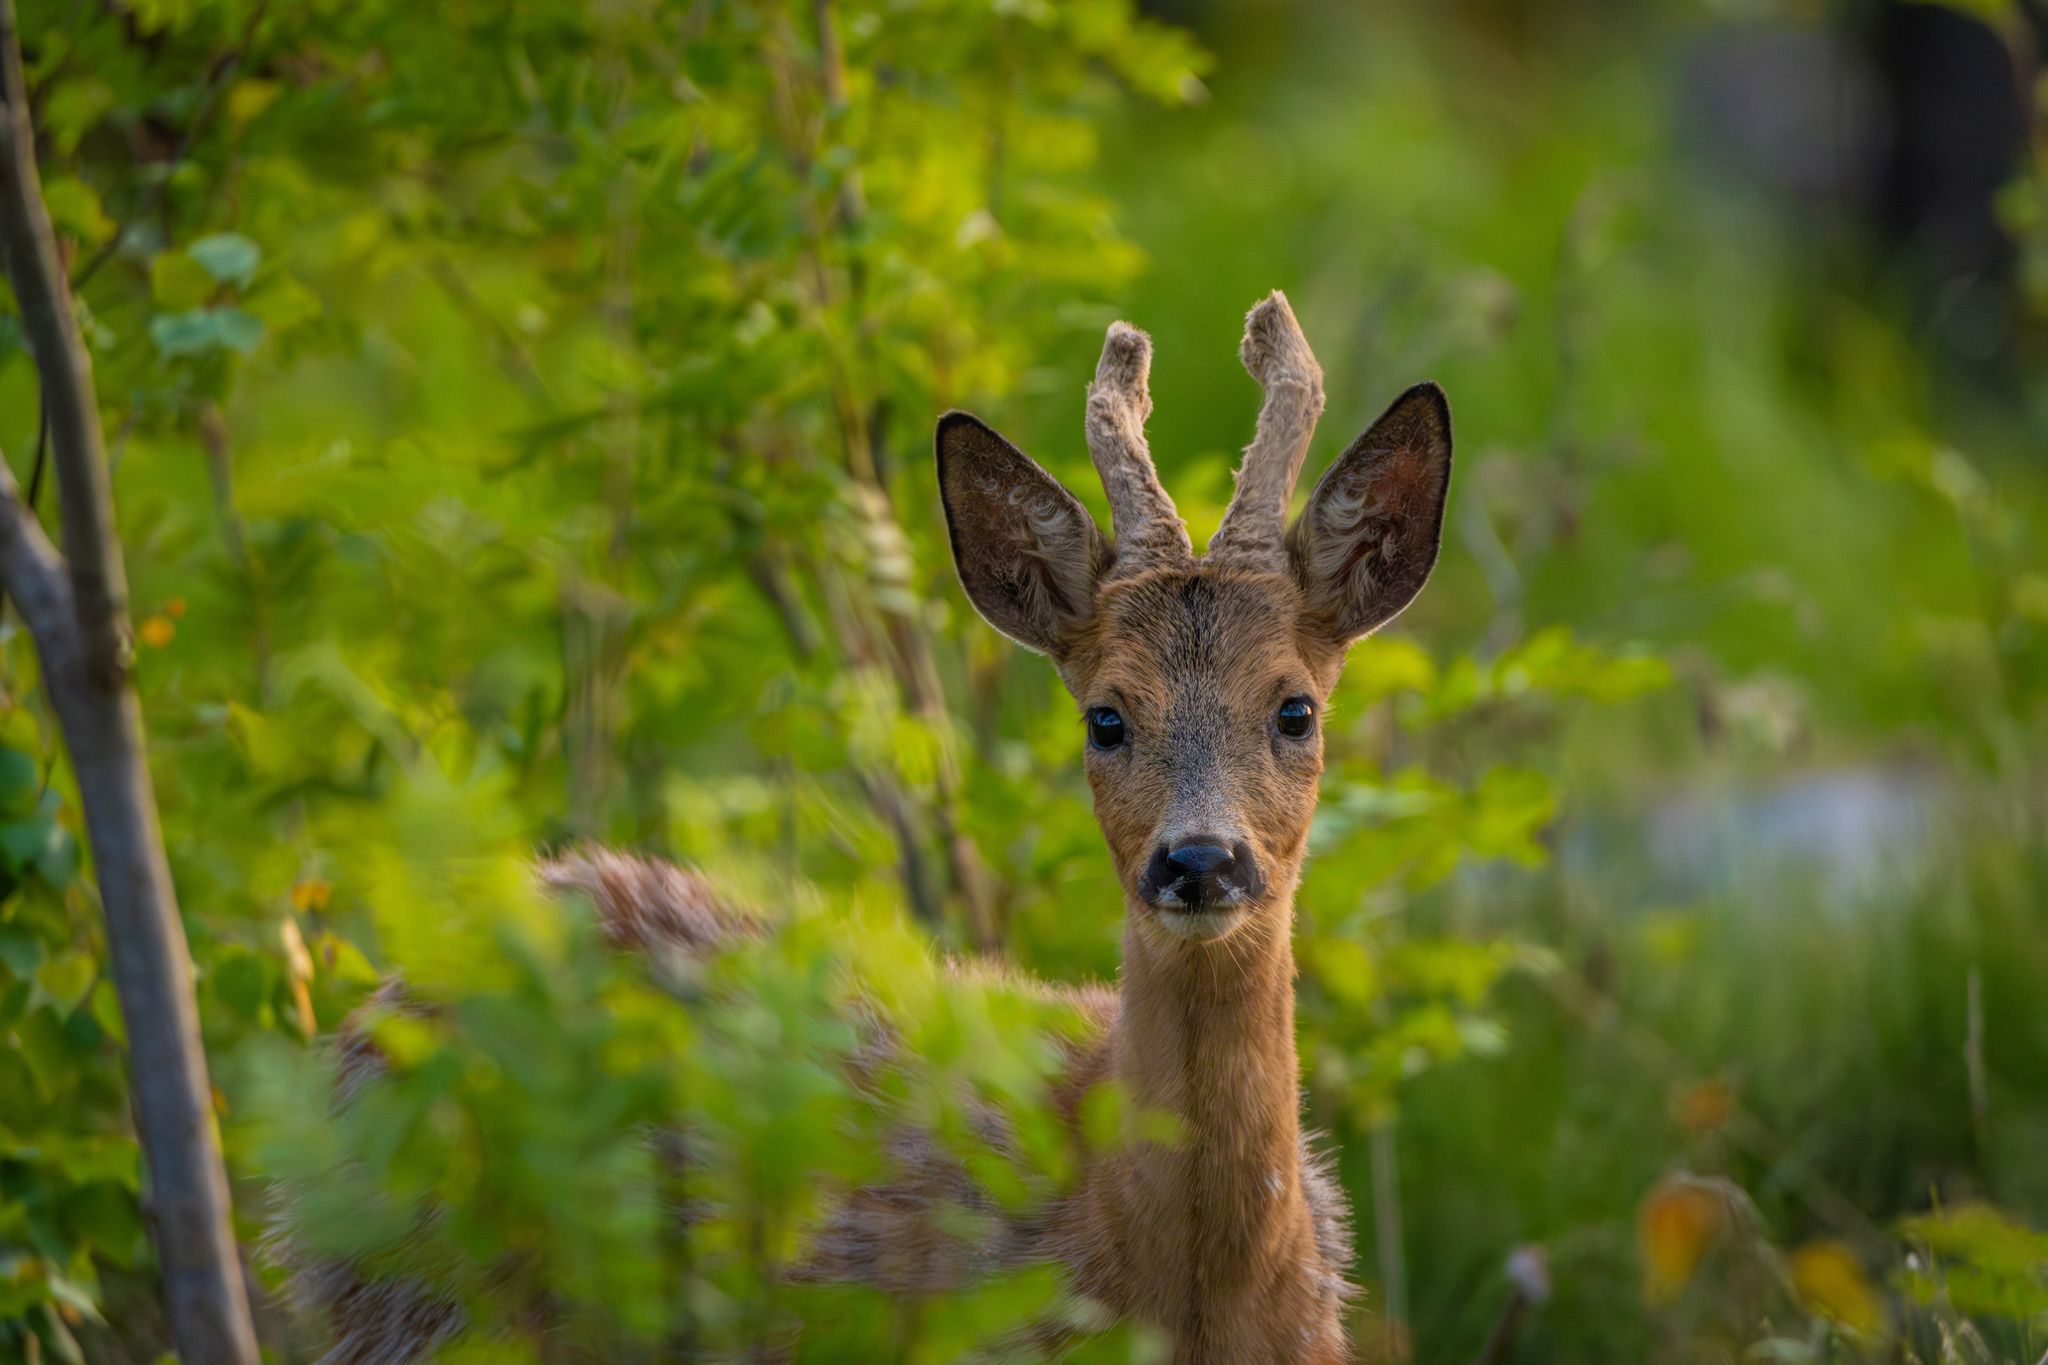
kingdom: Animalia
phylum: Chordata
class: Mammalia
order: Artiodactyla
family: Cervidae
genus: Capreolus
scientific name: Capreolus capreolus
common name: Western roe deer
